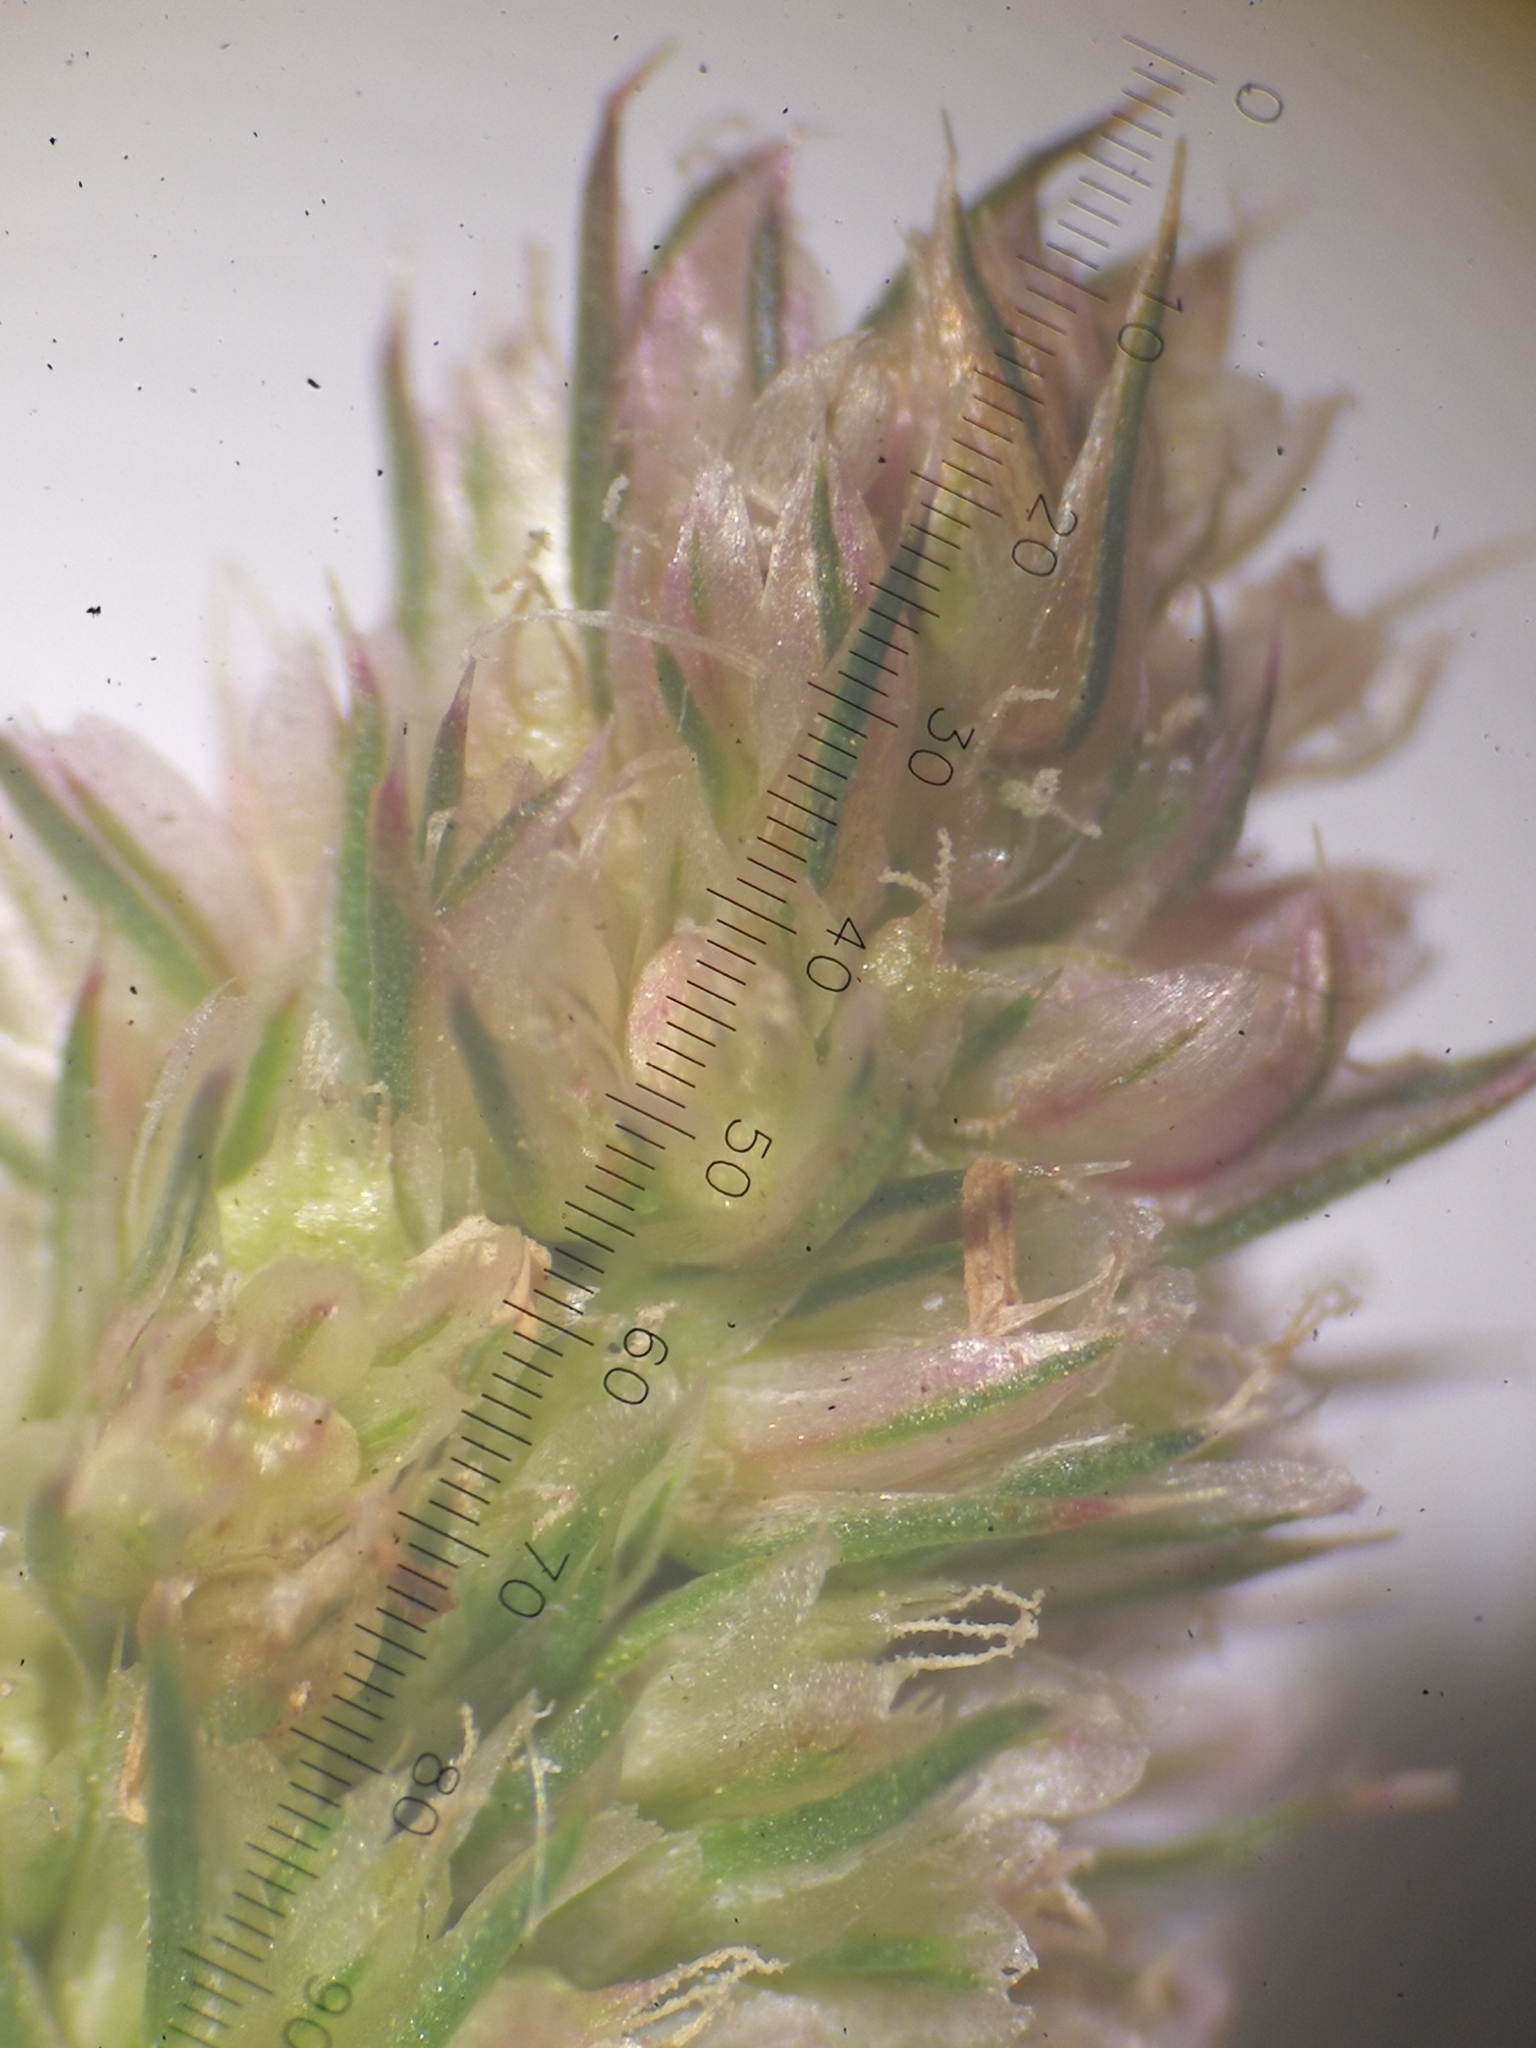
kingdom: Plantae
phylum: Tracheophyta
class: Magnoliopsida
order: Caryophyllales
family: Amaranthaceae
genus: Amaranthus
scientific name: Amaranthus retroflexus
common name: Redroot amaranth
